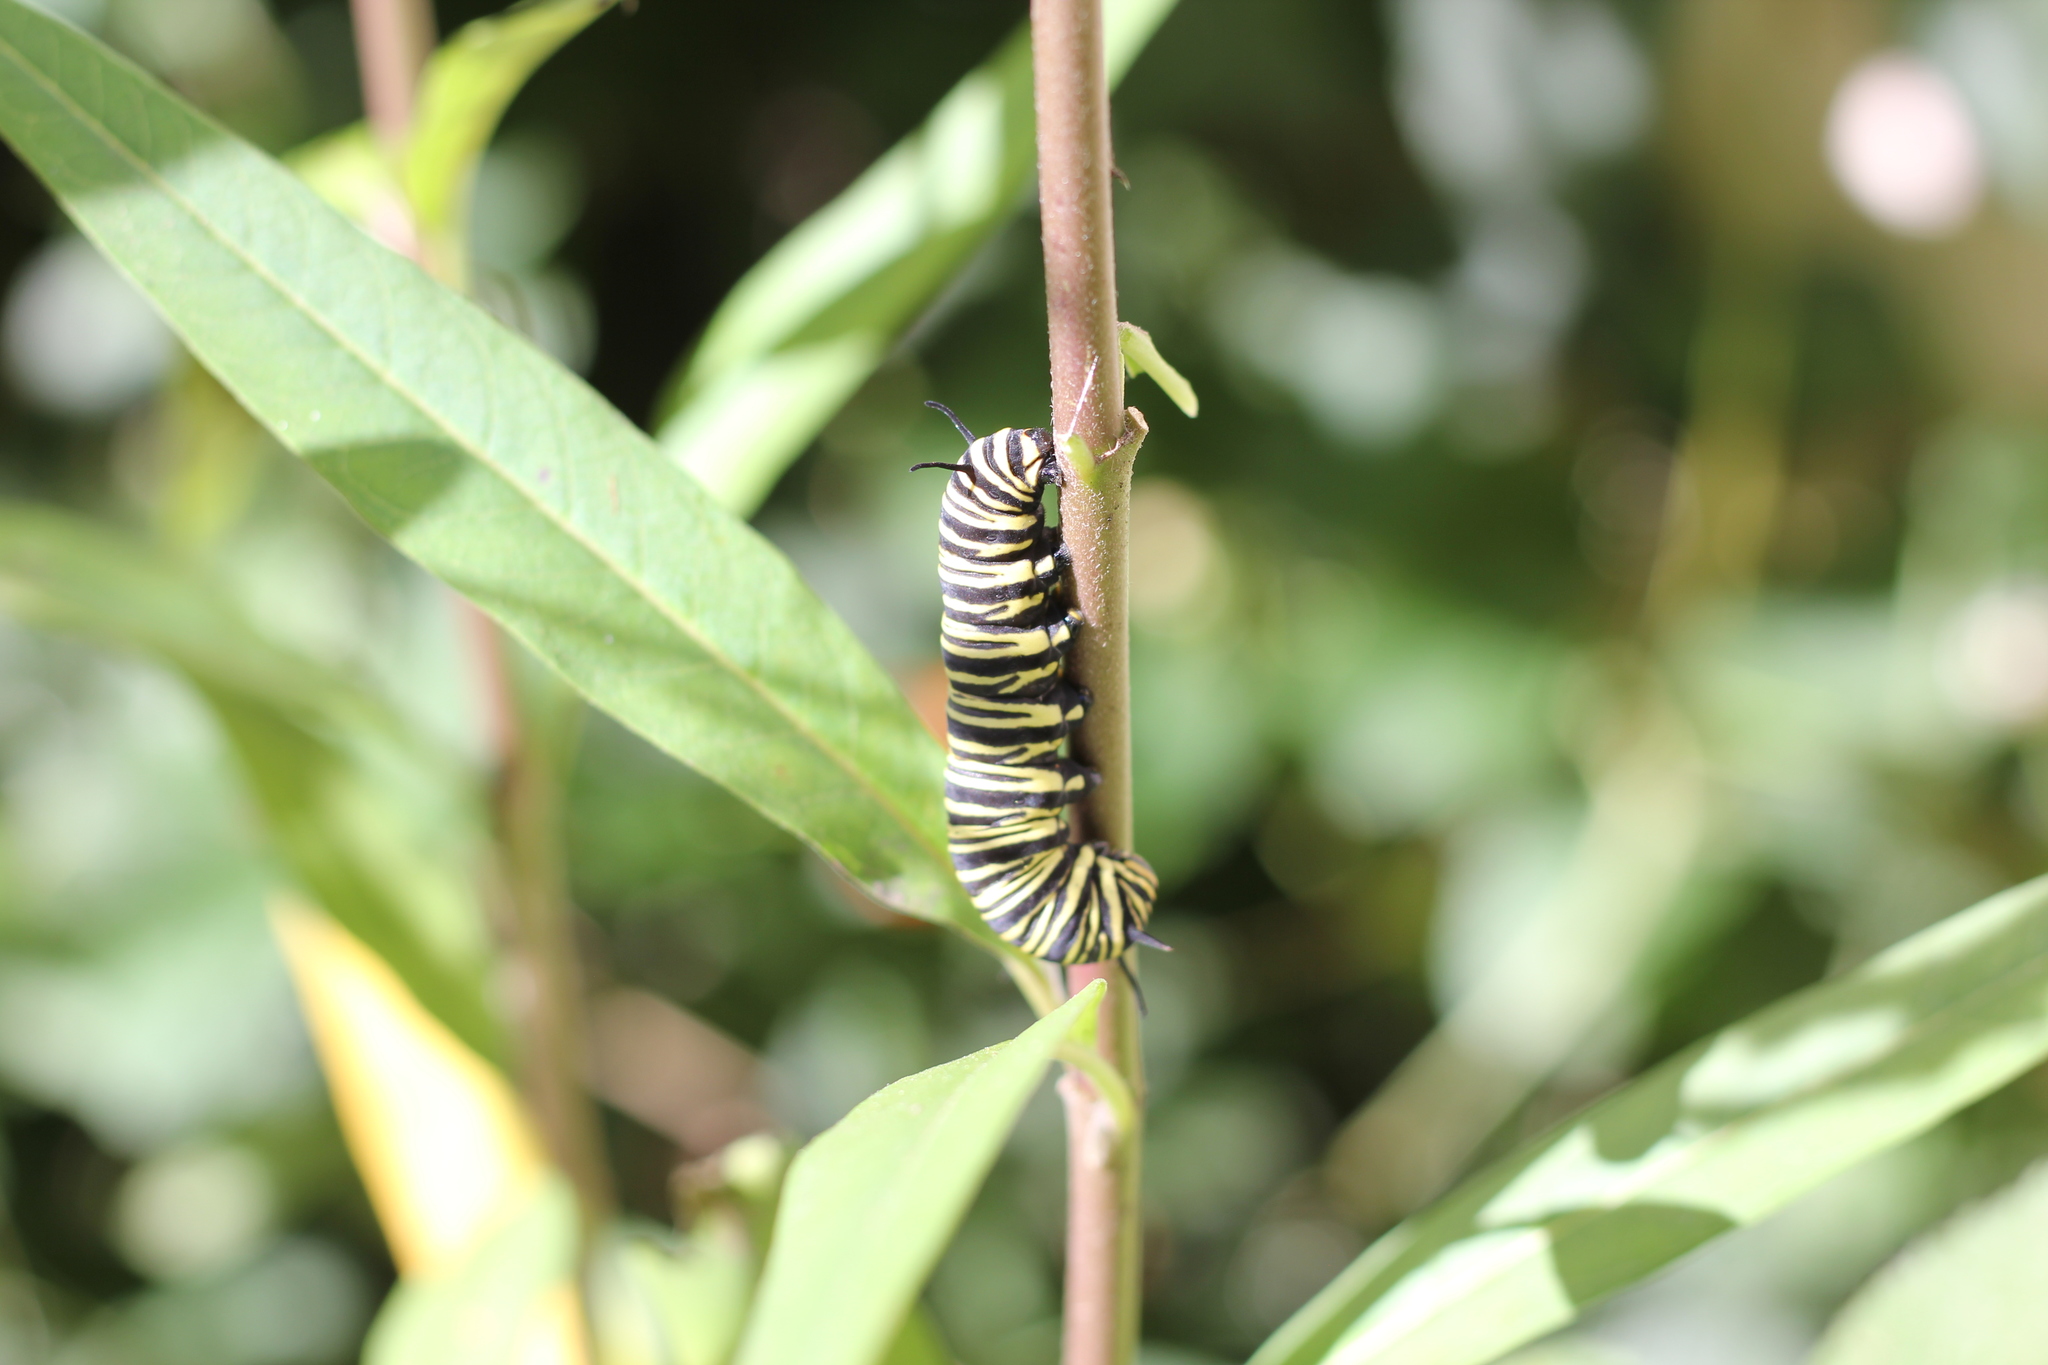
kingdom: Animalia
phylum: Arthropoda
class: Insecta
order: Lepidoptera
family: Nymphalidae
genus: Danaus
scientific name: Danaus erippus
